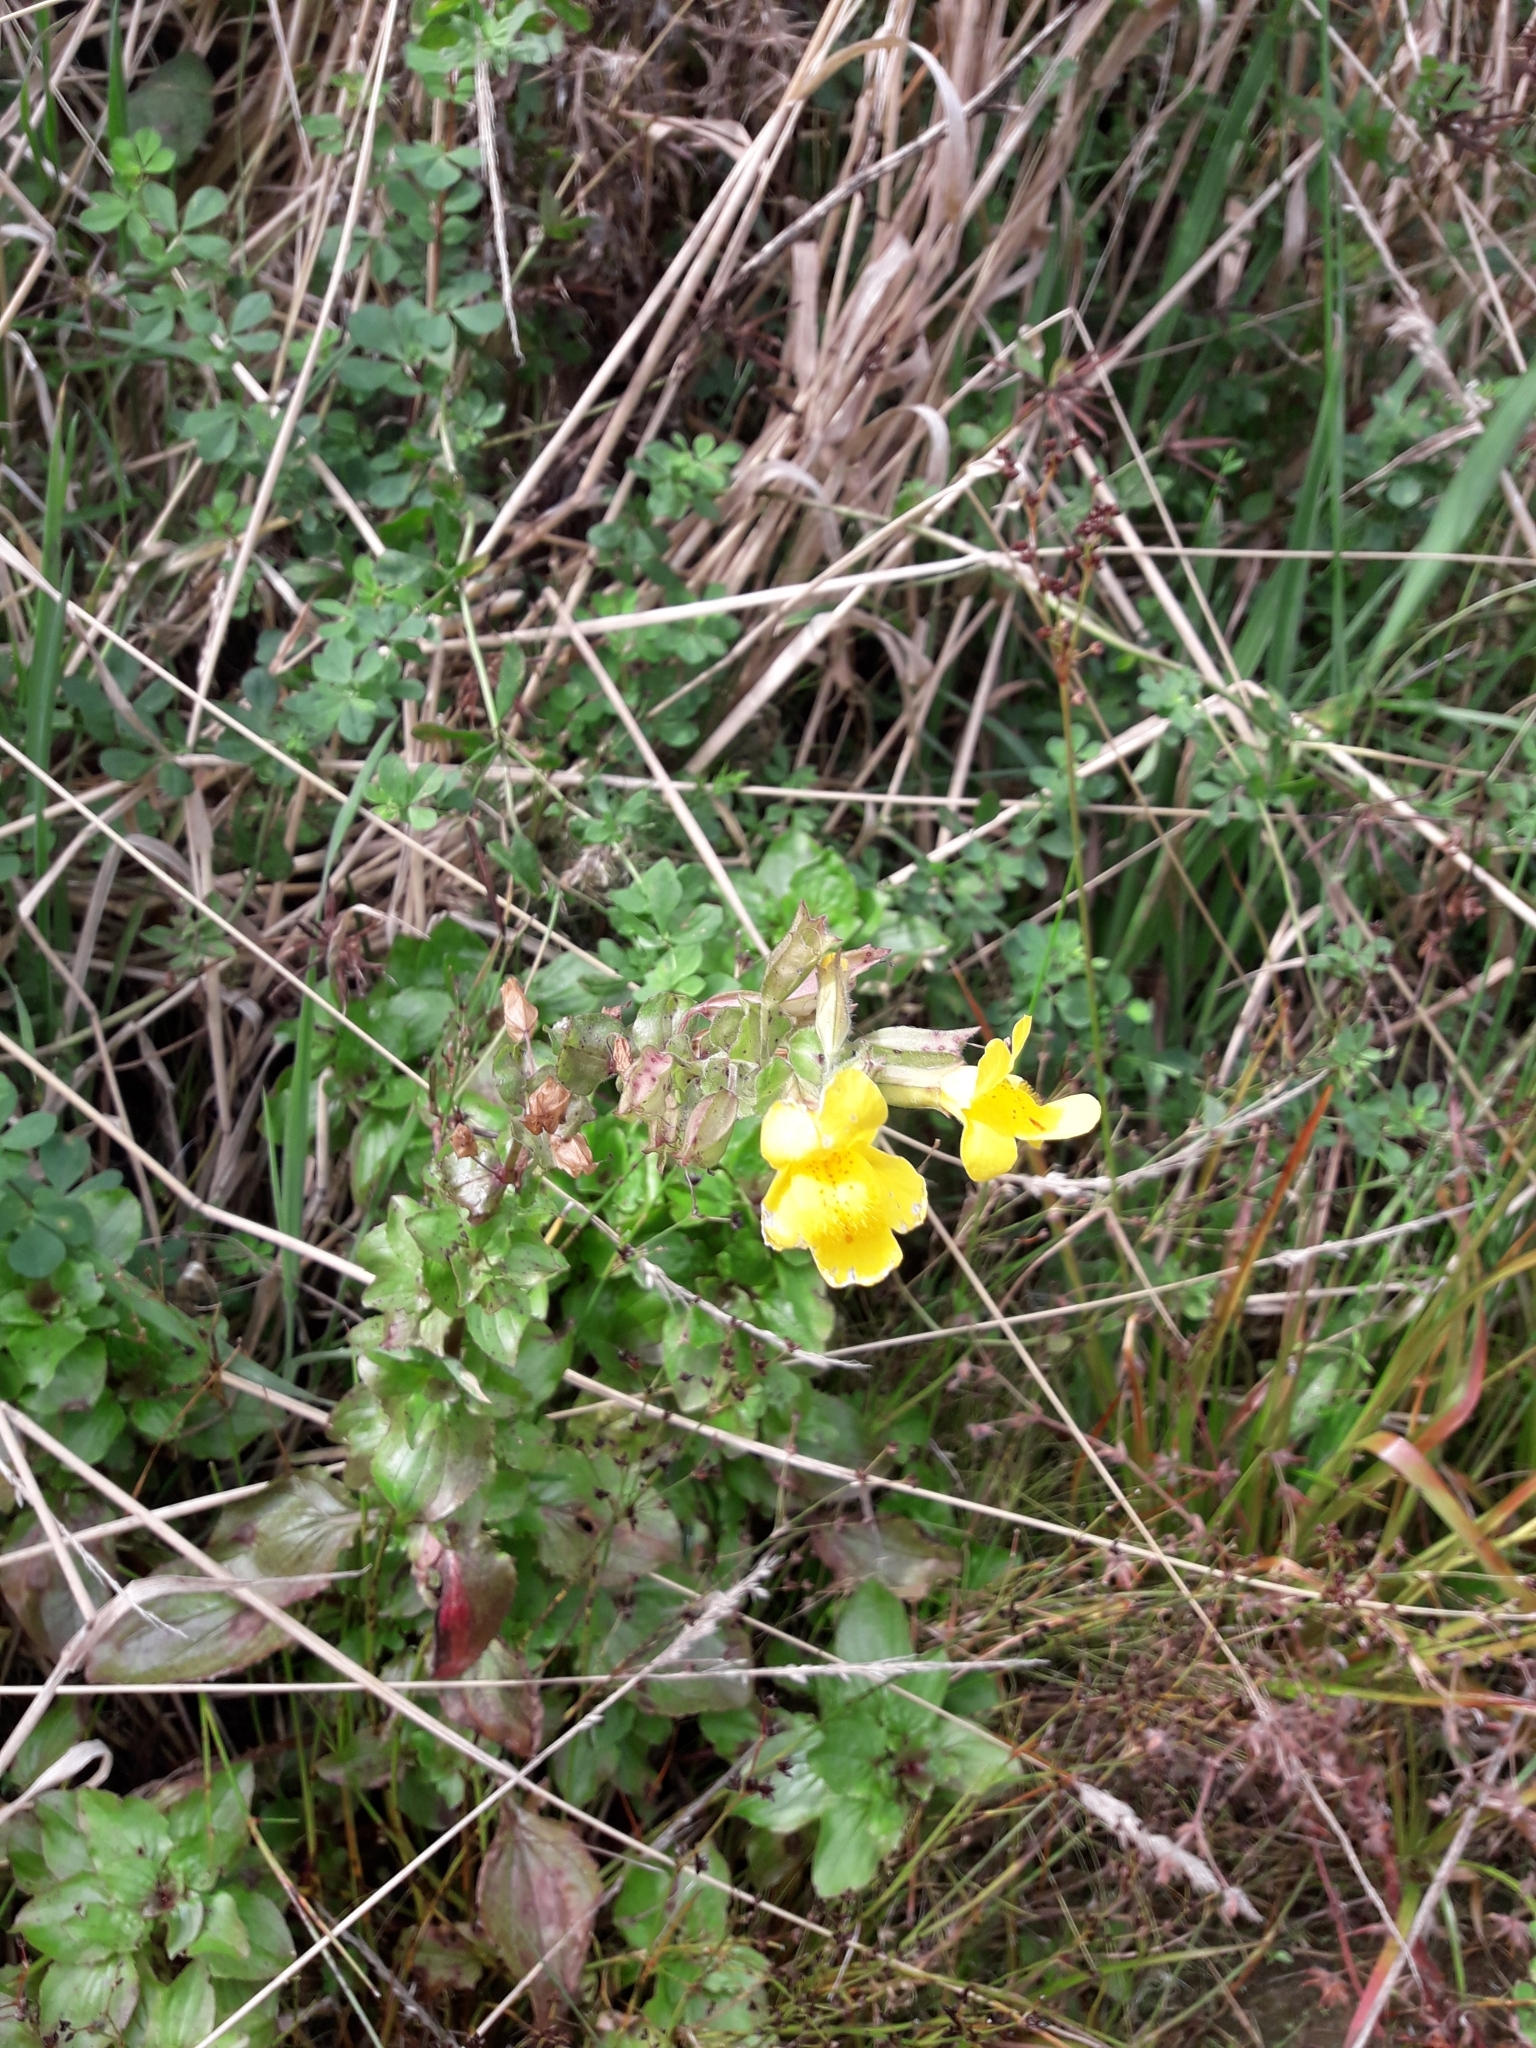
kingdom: Plantae
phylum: Tracheophyta
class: Magnoliopsida
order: Lamiales
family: Phrymaceae
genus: Erythranthe
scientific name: Erythranthe guttata
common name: Monkeyflower
